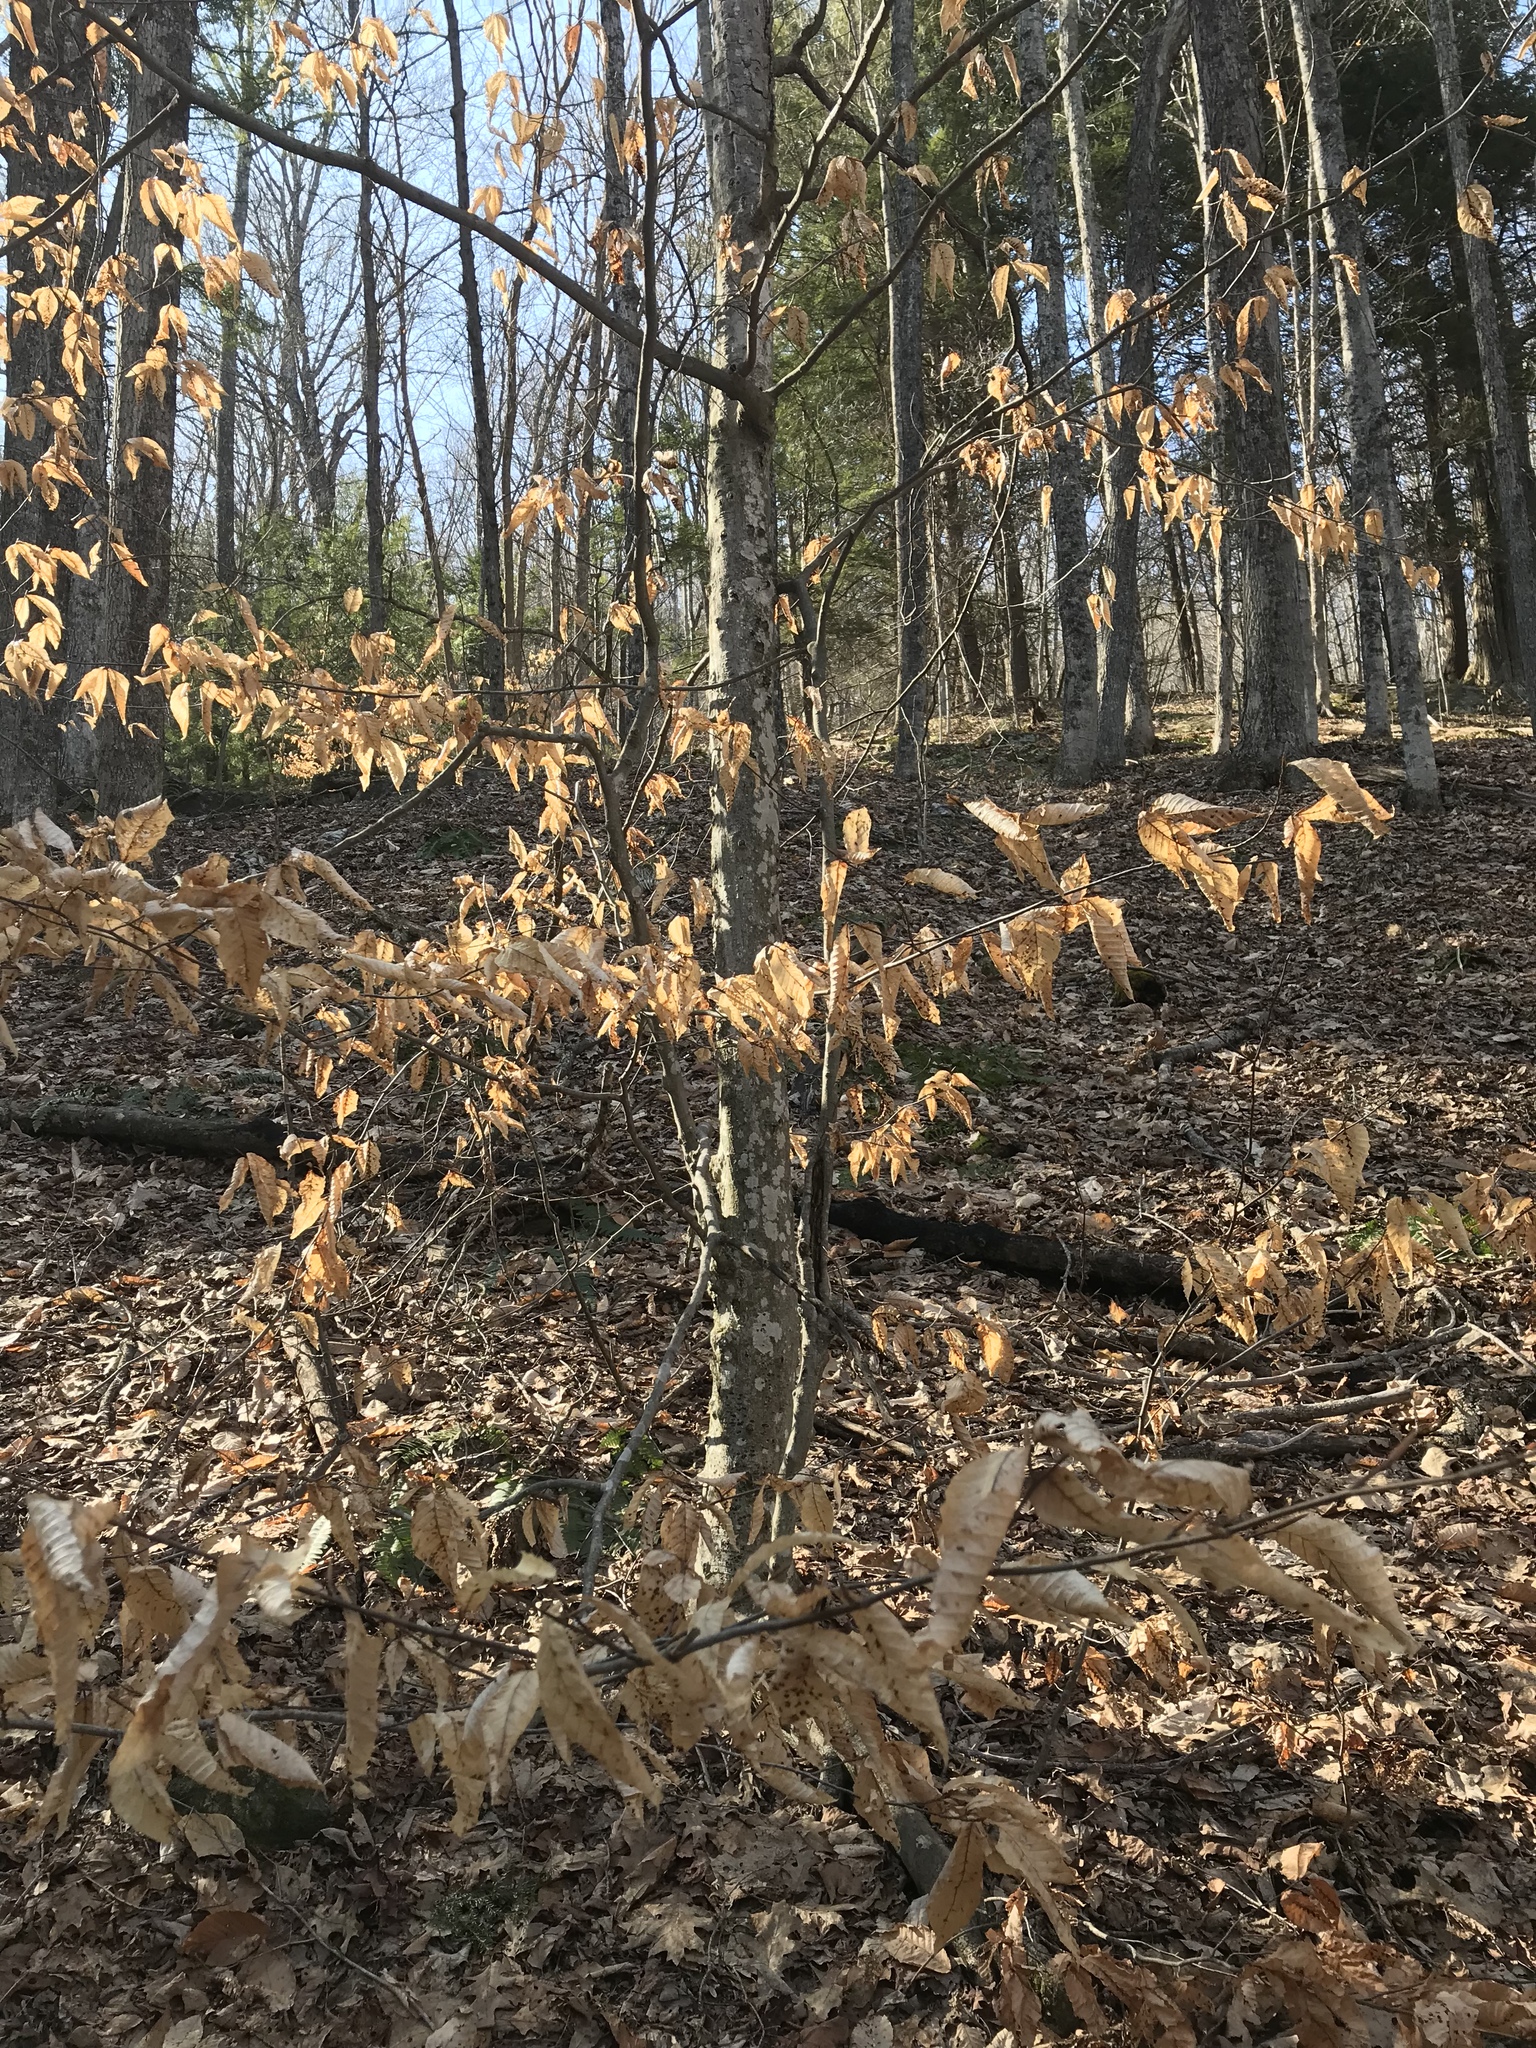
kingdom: Plantae
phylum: Tracheophyta
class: Magnoliopsida
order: Fagales
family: Fagaceae
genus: Fagus
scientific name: Fagus grandifolia
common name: American beech
